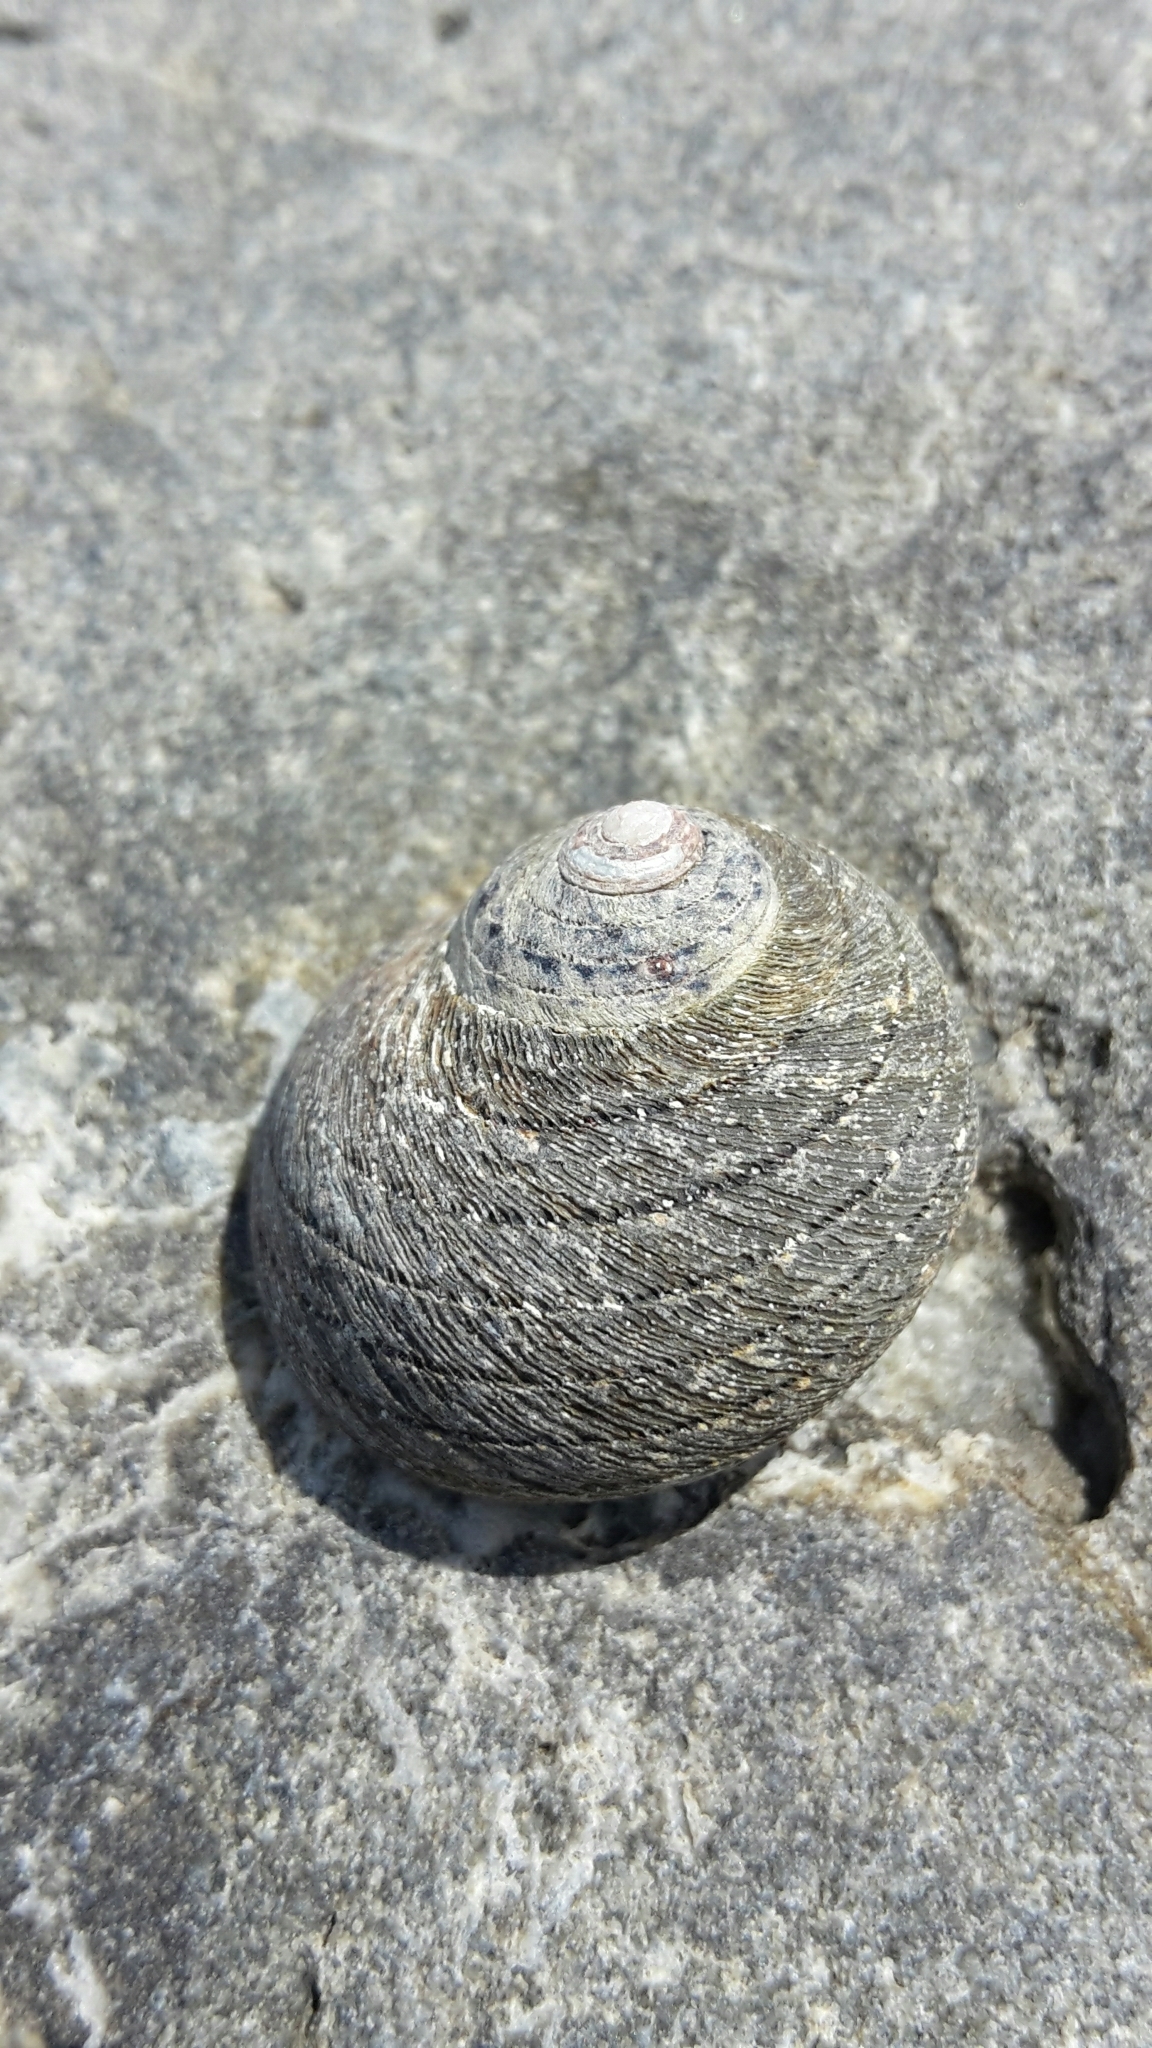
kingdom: Animalia
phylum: Mollusca
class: Gastropoda
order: Trochida
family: Trochidae
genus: Diloma
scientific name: Diloma aethiops
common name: Scorched monodont
